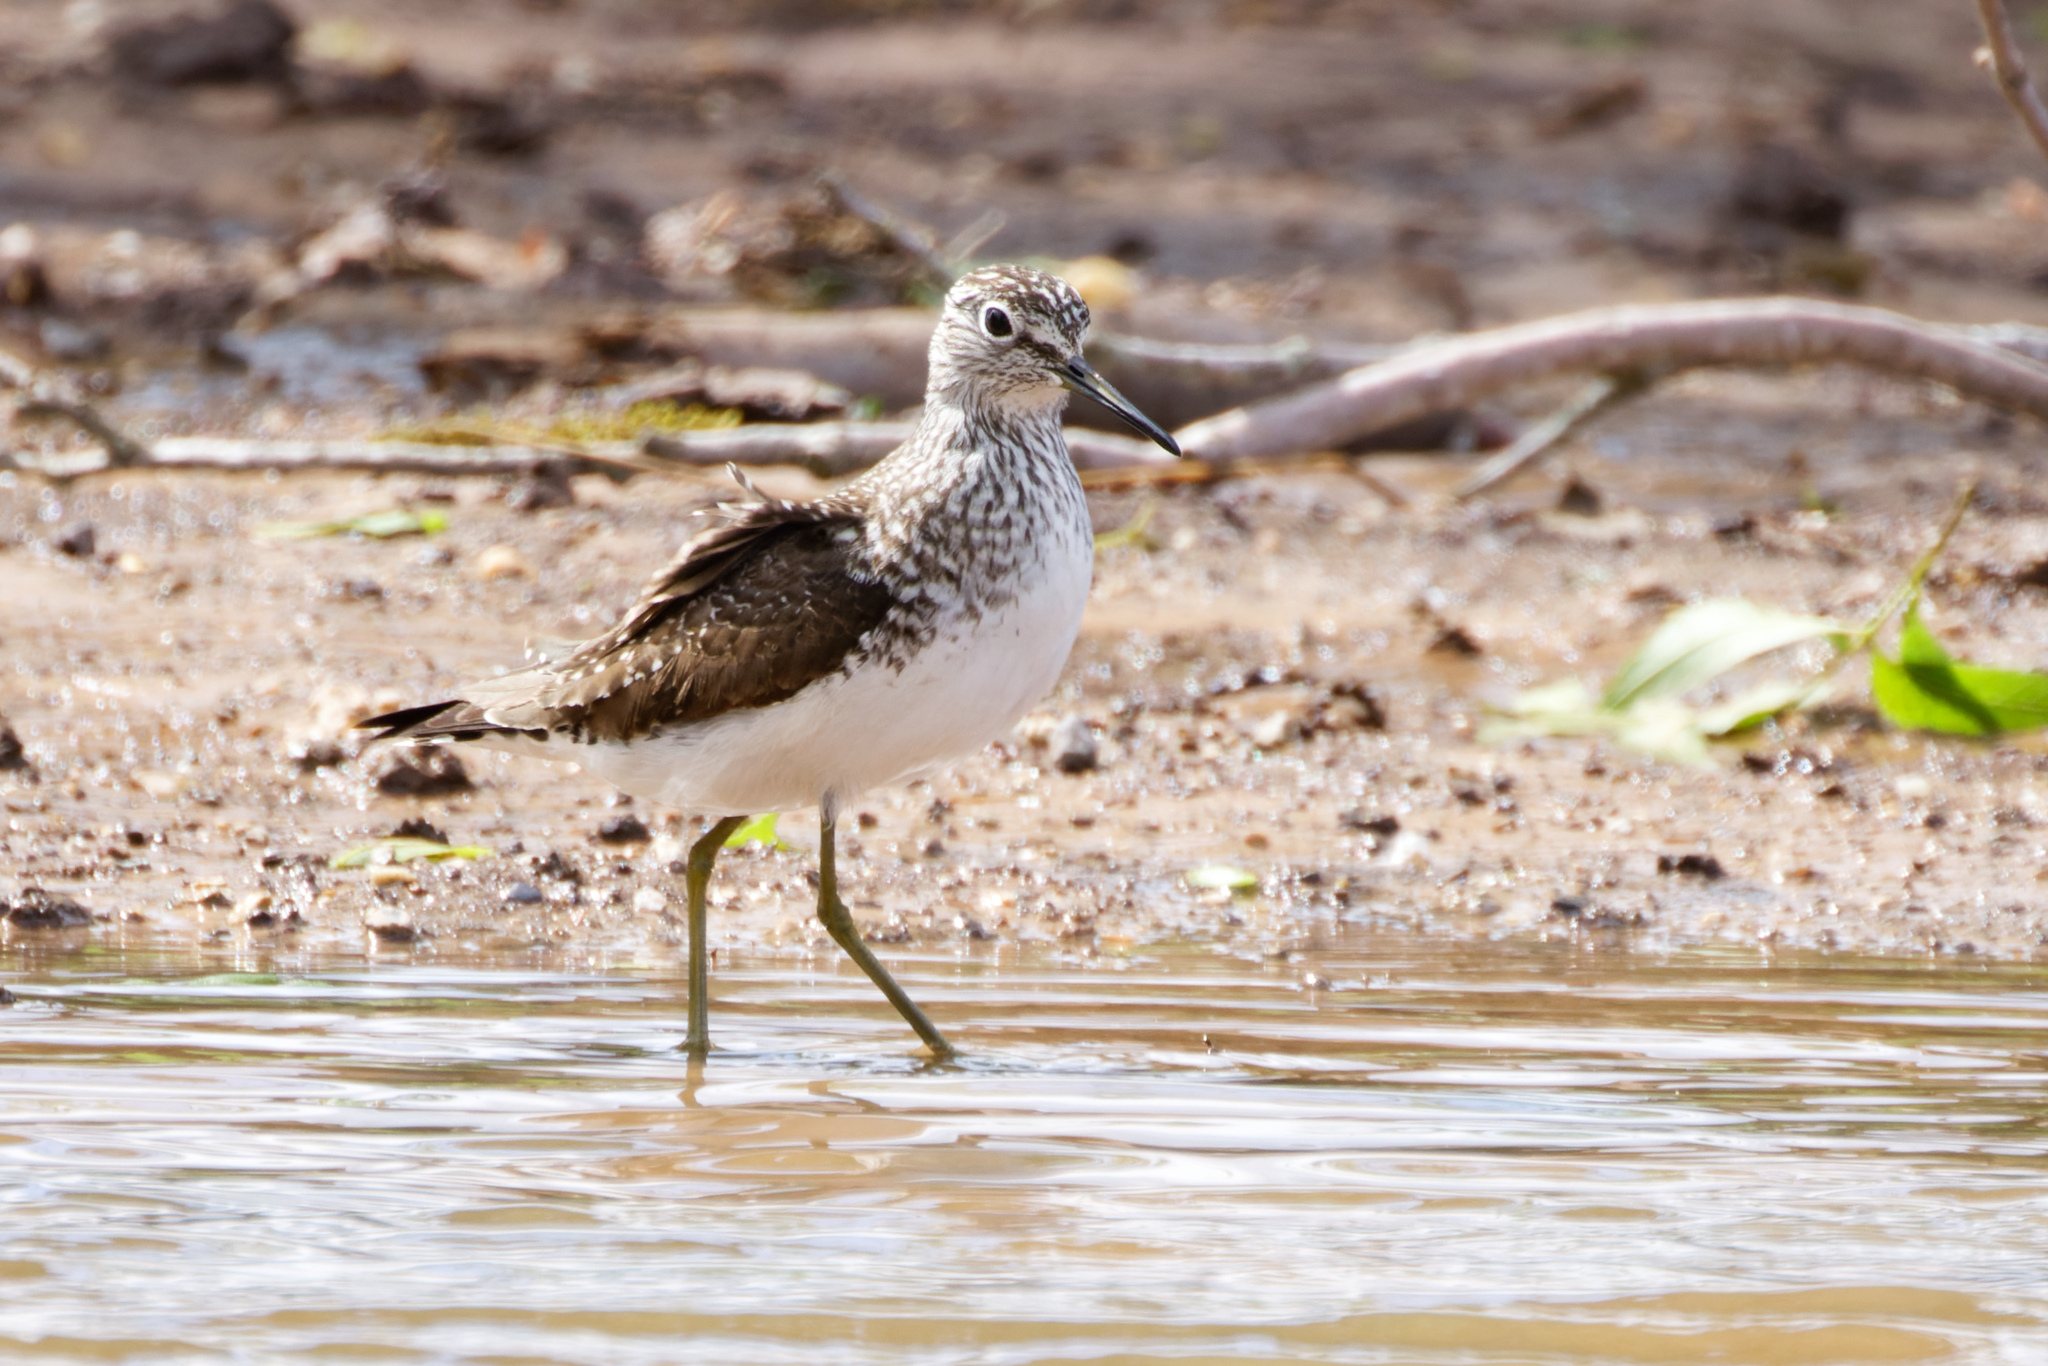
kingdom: Animalia
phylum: Chordata
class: Aves
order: Charadriiformes
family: Scolopacidae
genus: Tringa
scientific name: Tringa solitaria
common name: Solitary sandpiper
